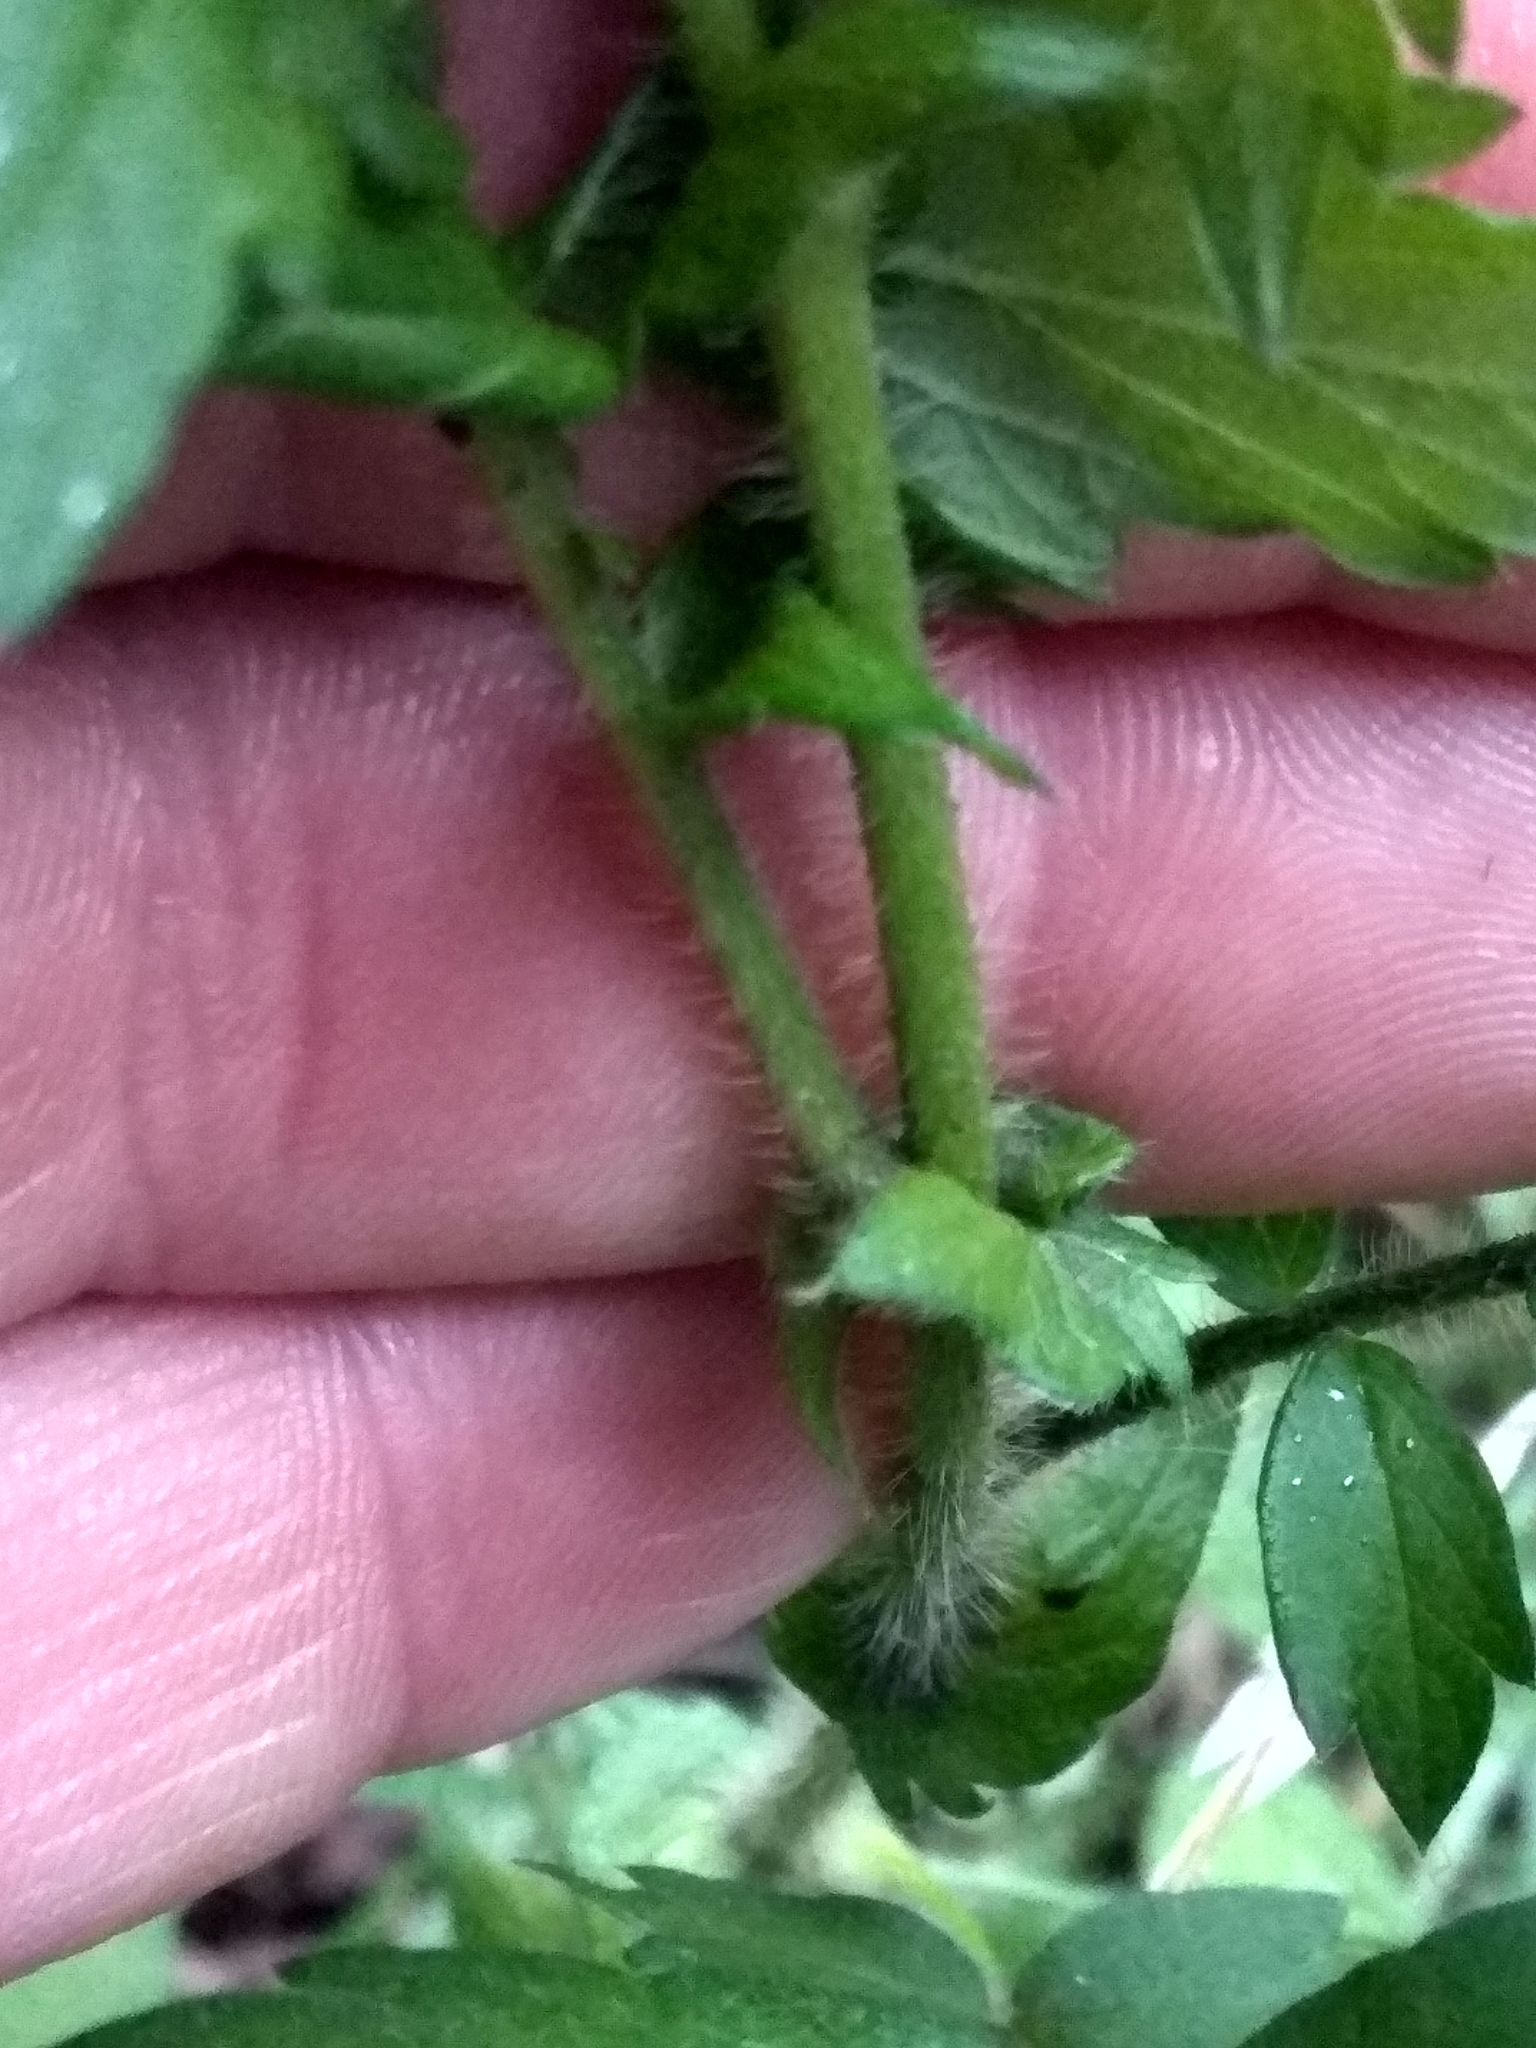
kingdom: Plantae
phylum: Tracheophyta
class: Magnoliopsida
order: Rosales
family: Rosaceae
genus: Agrimonia
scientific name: Agrimonia pilosa
